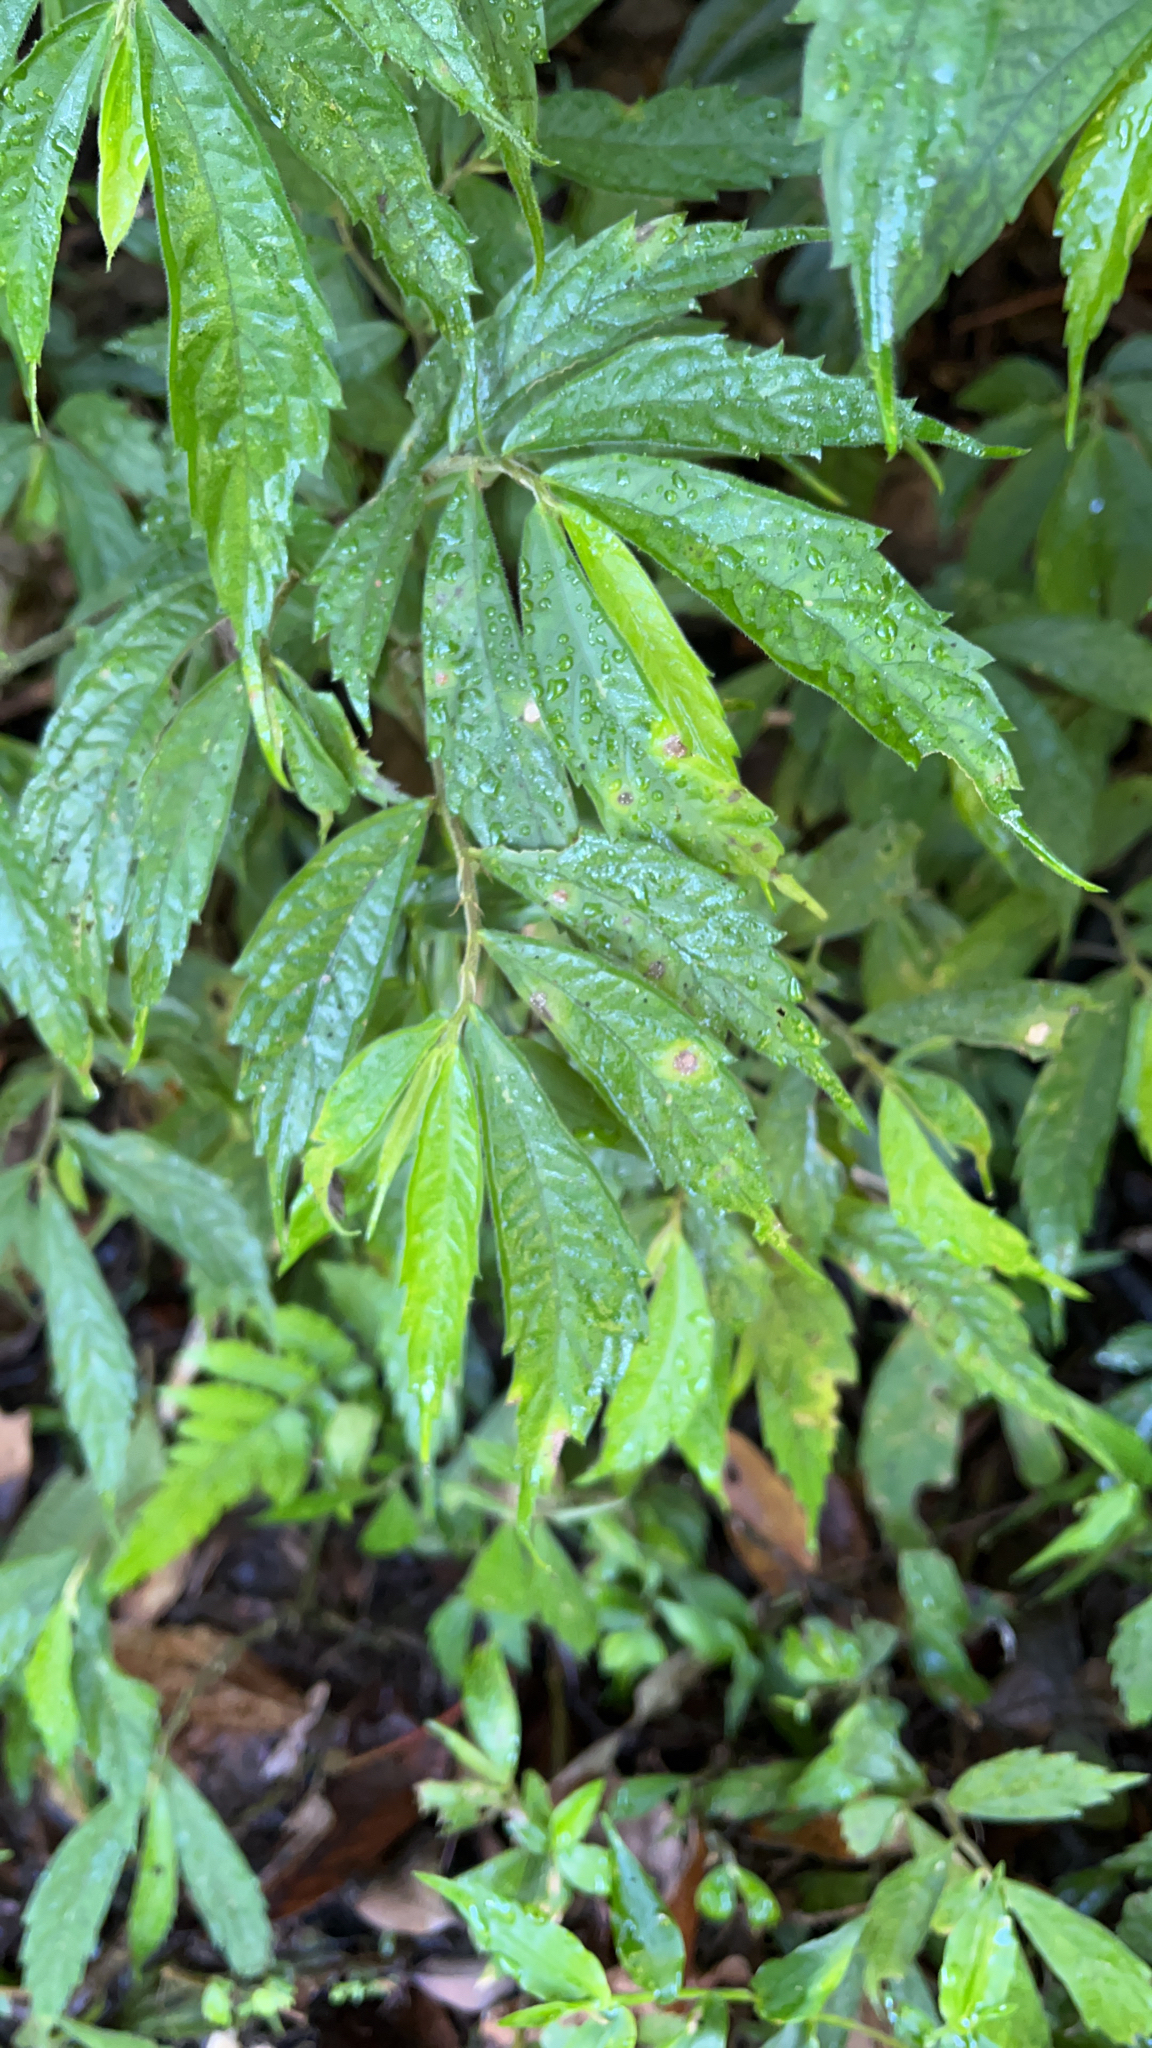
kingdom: Plantae
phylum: Tracheophyta
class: Magnoliopsida
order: Rosales
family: Urticaceae
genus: Elatostema
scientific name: Elatostema lineolatum
